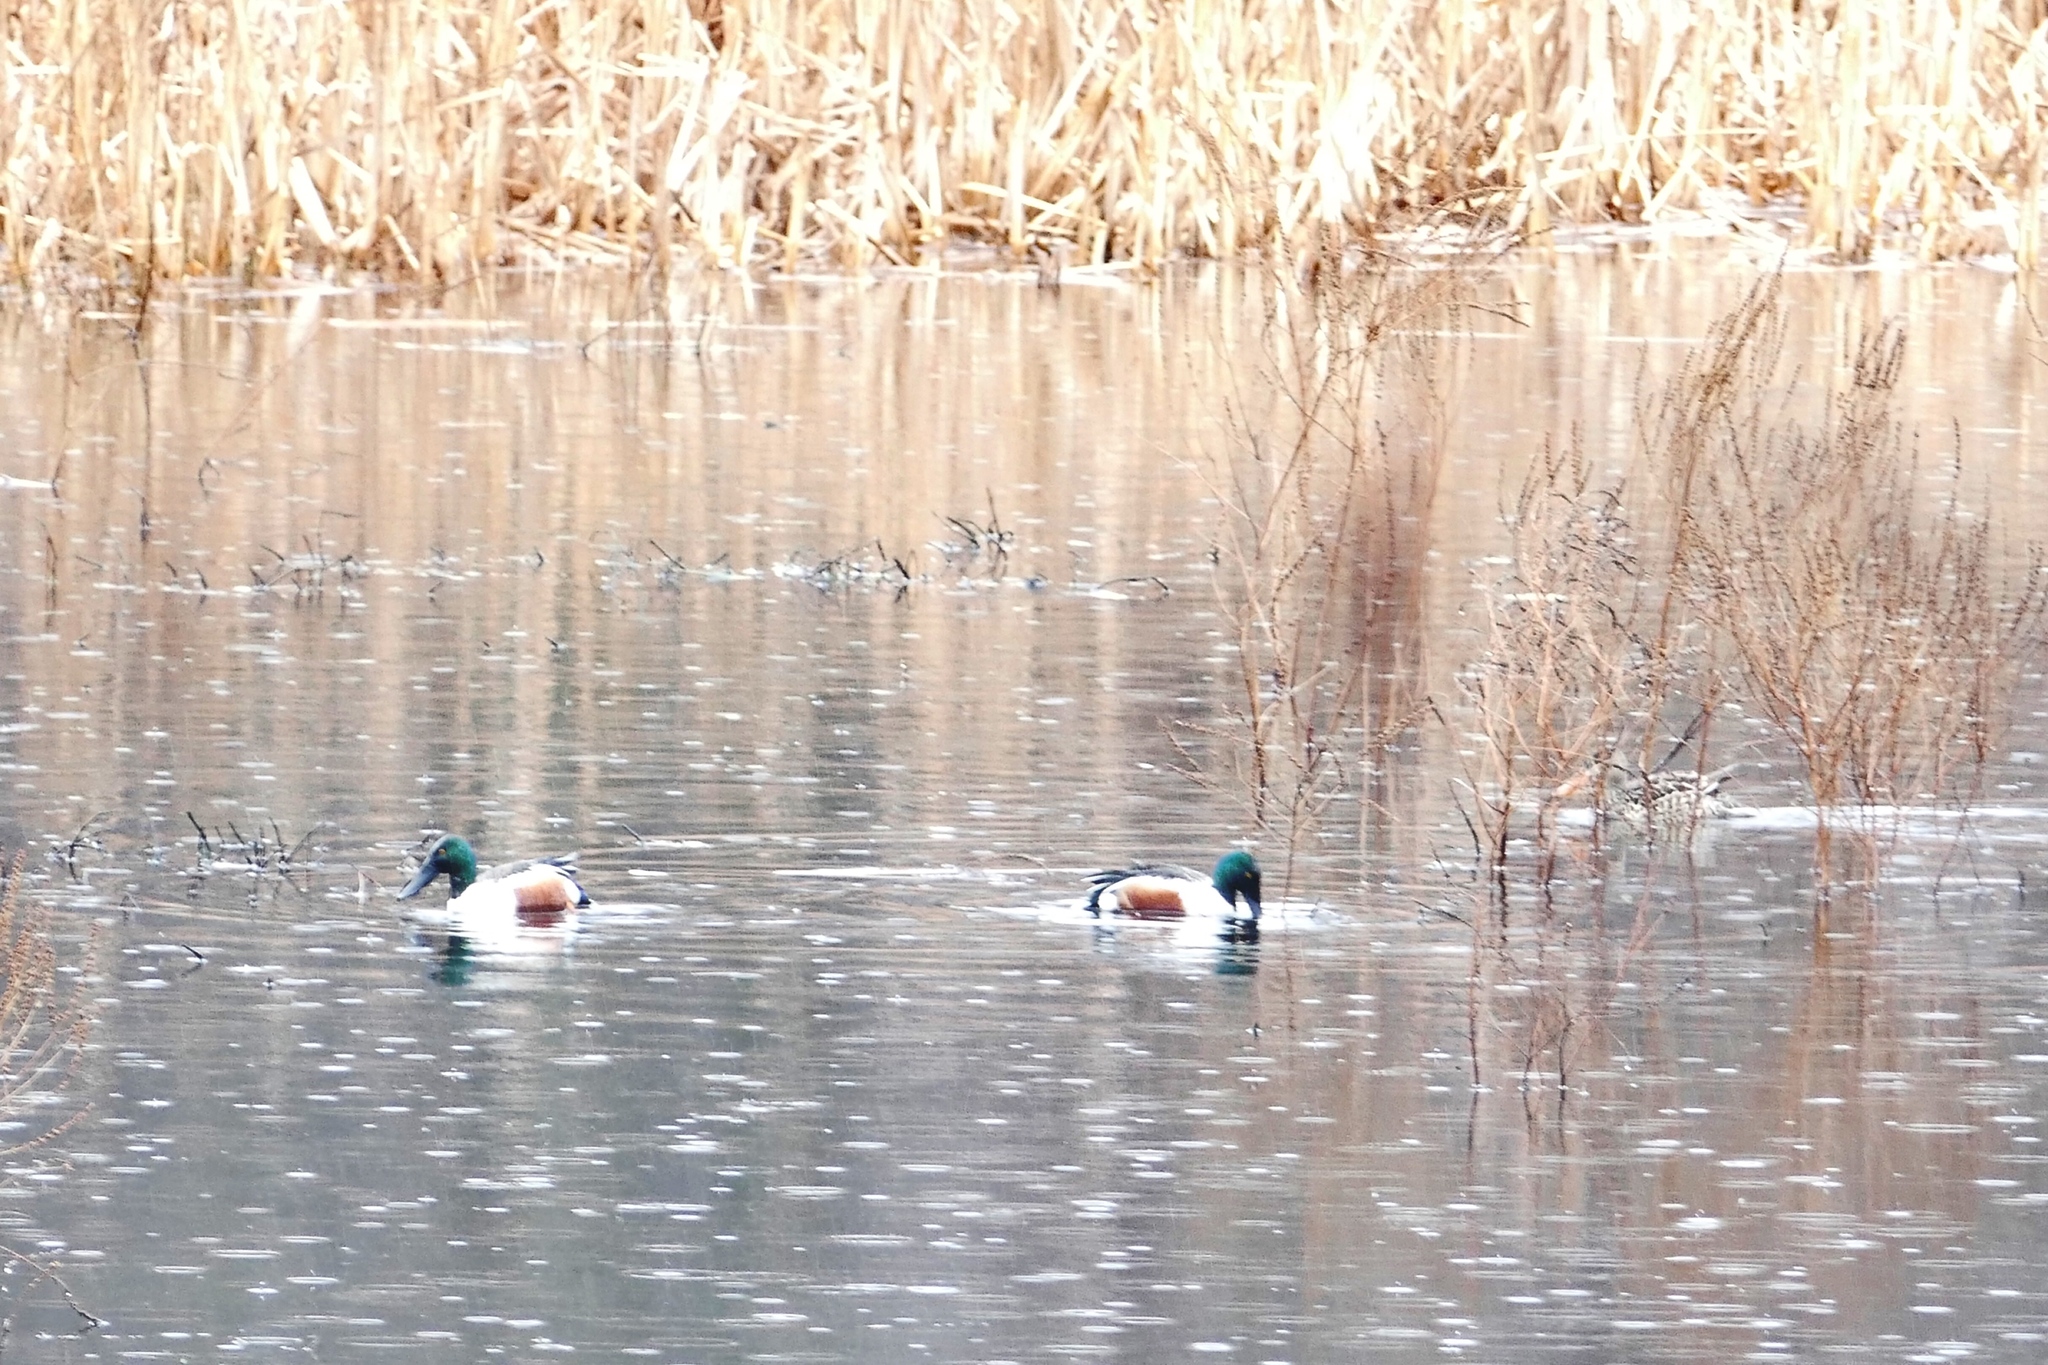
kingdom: Animalia
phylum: Chordata
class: Aves
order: Anseriformes
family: Anatidae
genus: Spatula
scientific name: Spatula clypeata
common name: Northern shoveler
